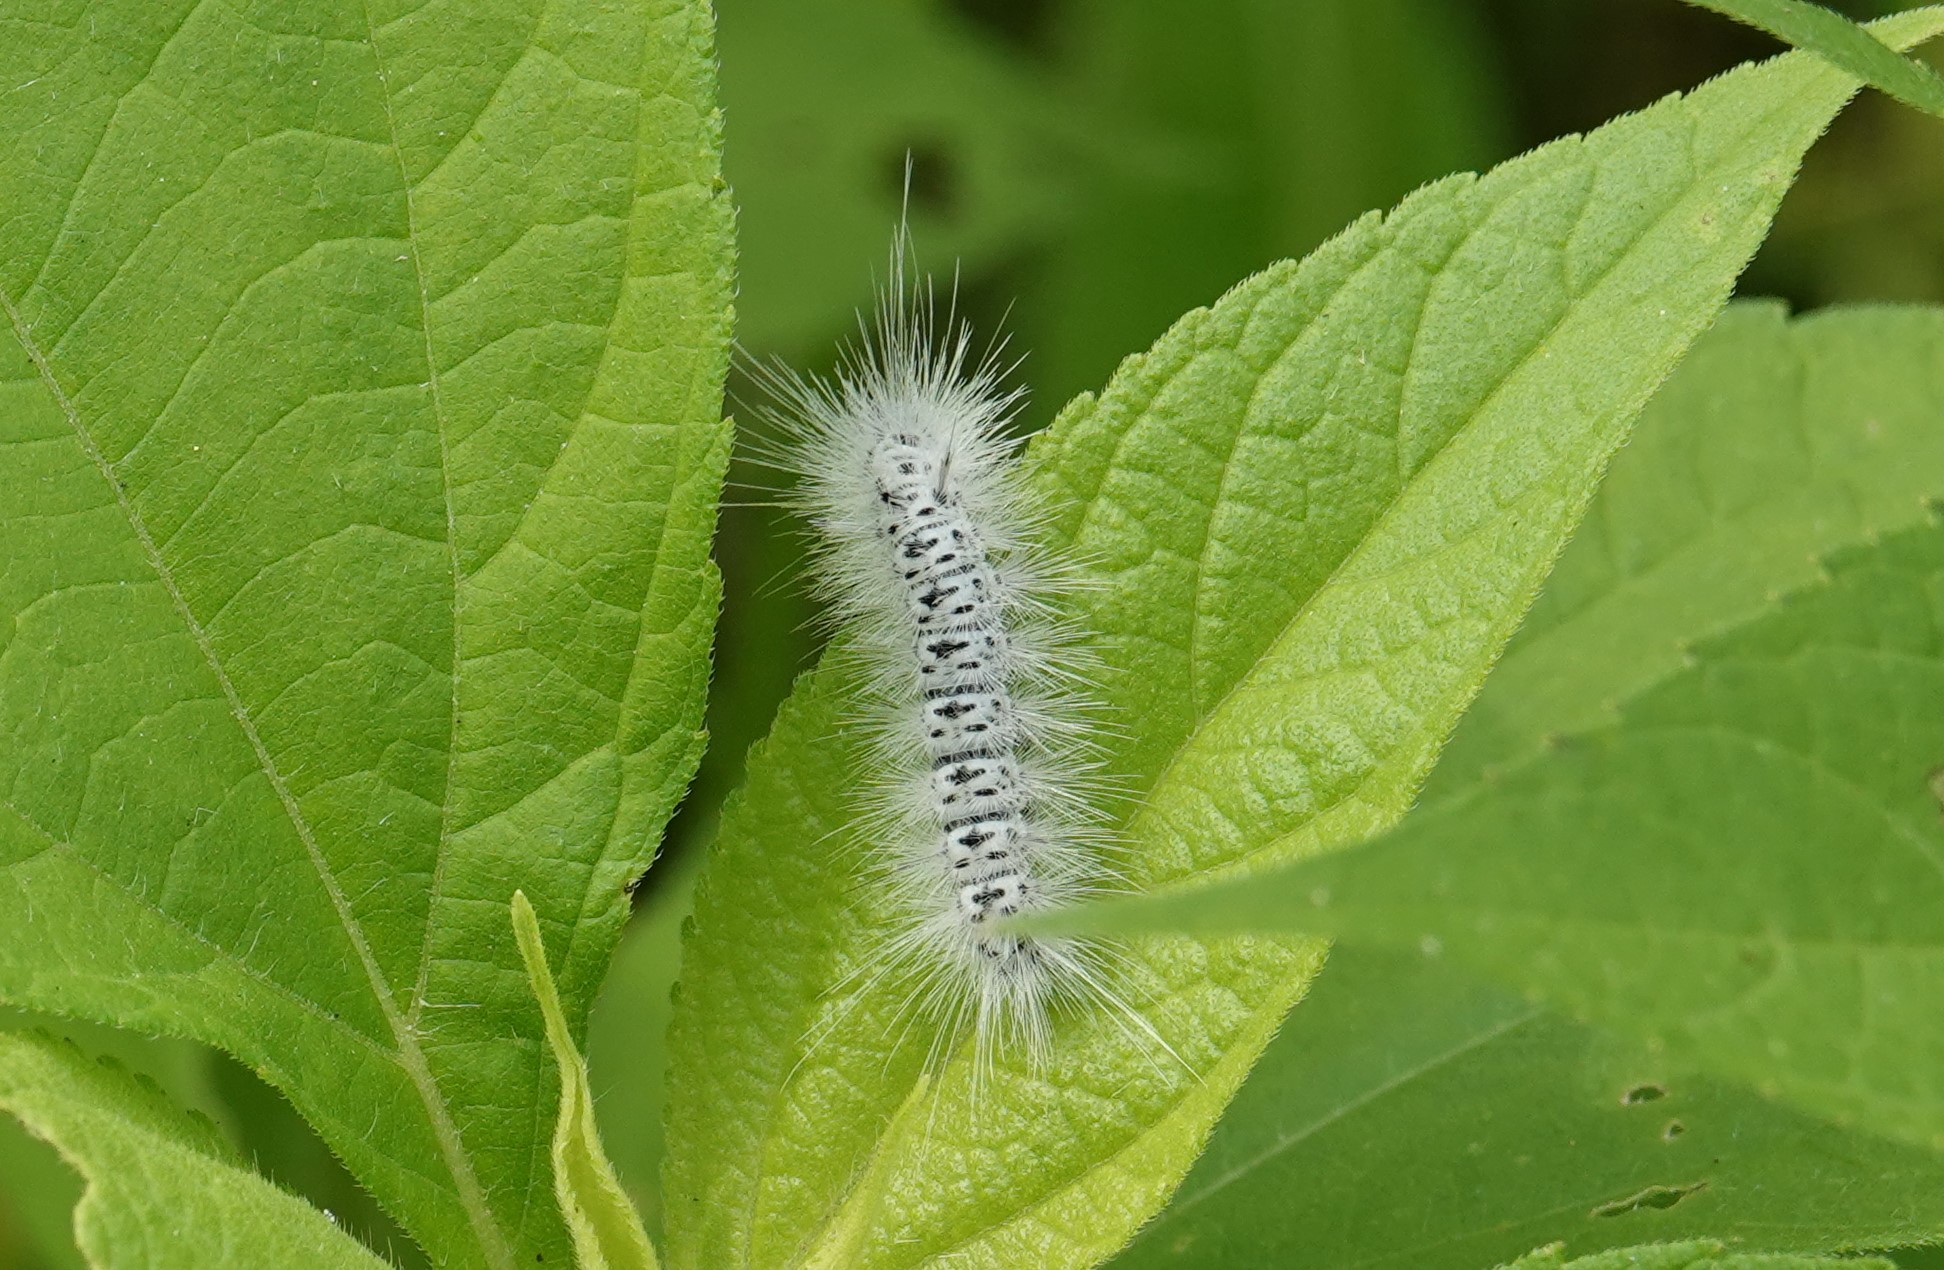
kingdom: Animalia
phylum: Arthropoda
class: Insecta
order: Lepidoptera
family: Erebidae
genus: Lophocampa
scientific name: Lophocampa caryae
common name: Hickory tussock moth
